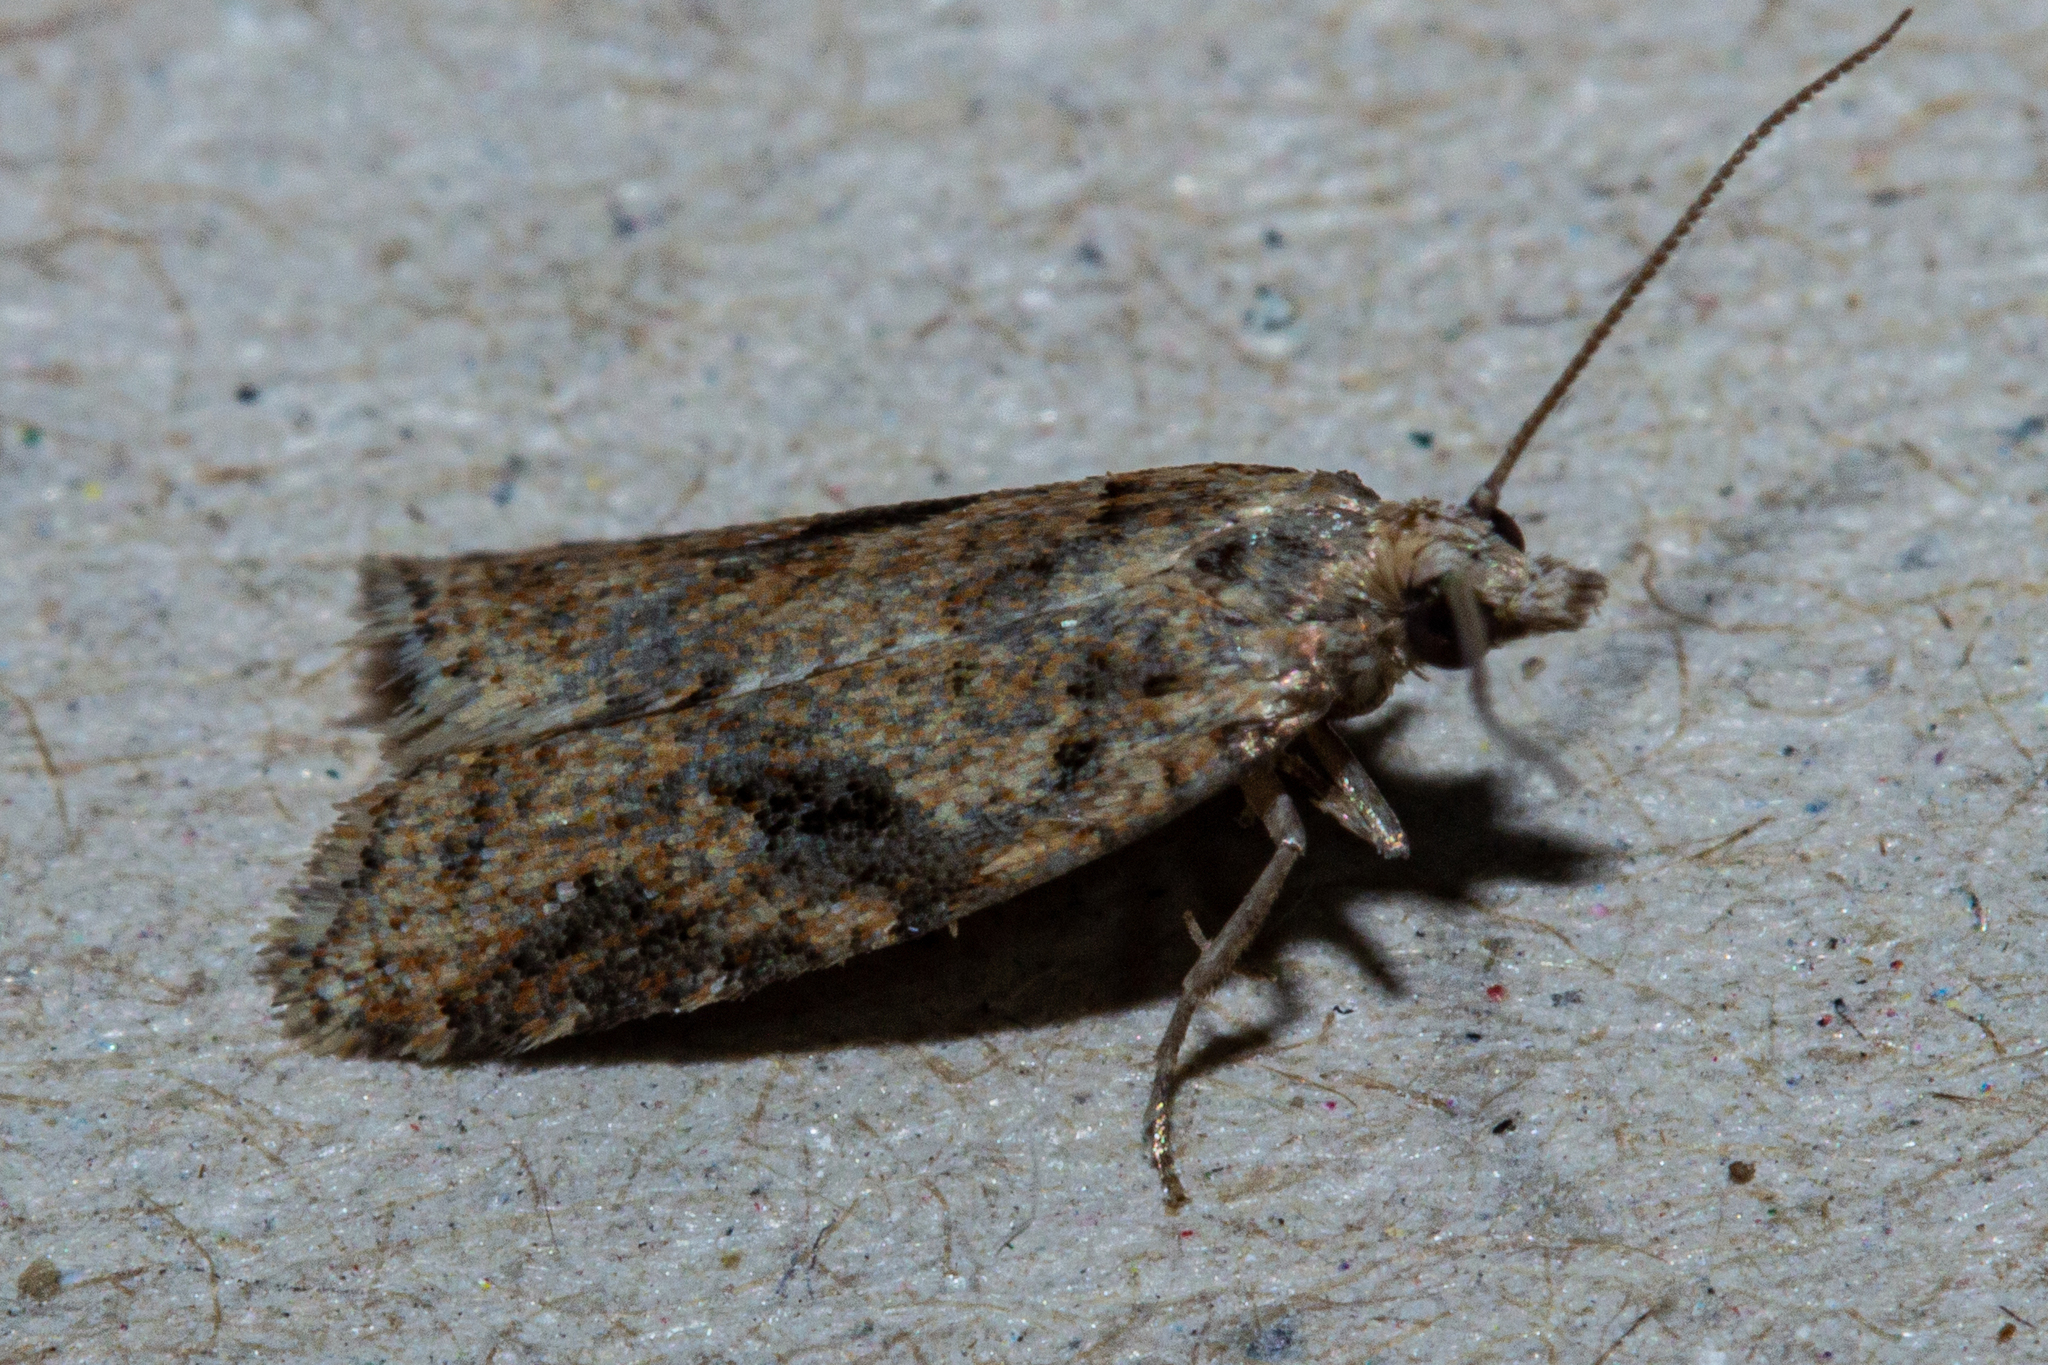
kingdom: Animalia
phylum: Arthropoda
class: Insecta
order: Lepidoptera
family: Tortricidae
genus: Capua
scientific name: Capua semiferana
